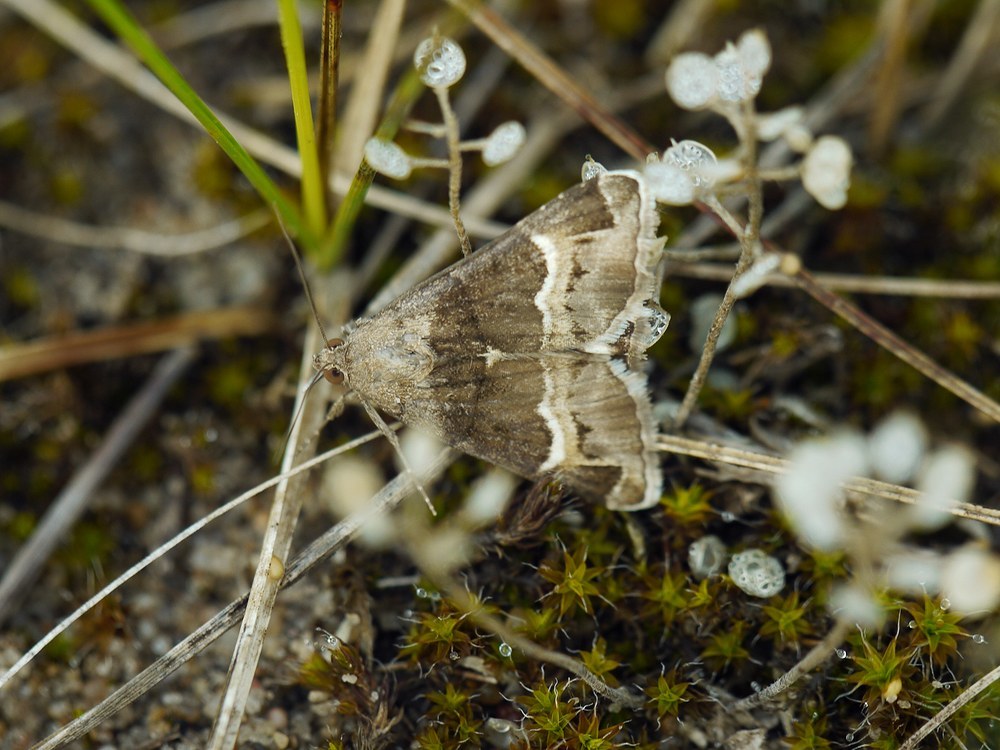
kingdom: Animalia
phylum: Arthropoda
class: Insecta
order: Lepidoptera
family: Erebidae
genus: Grammodes
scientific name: Grammodes stolida
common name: Geometrician
